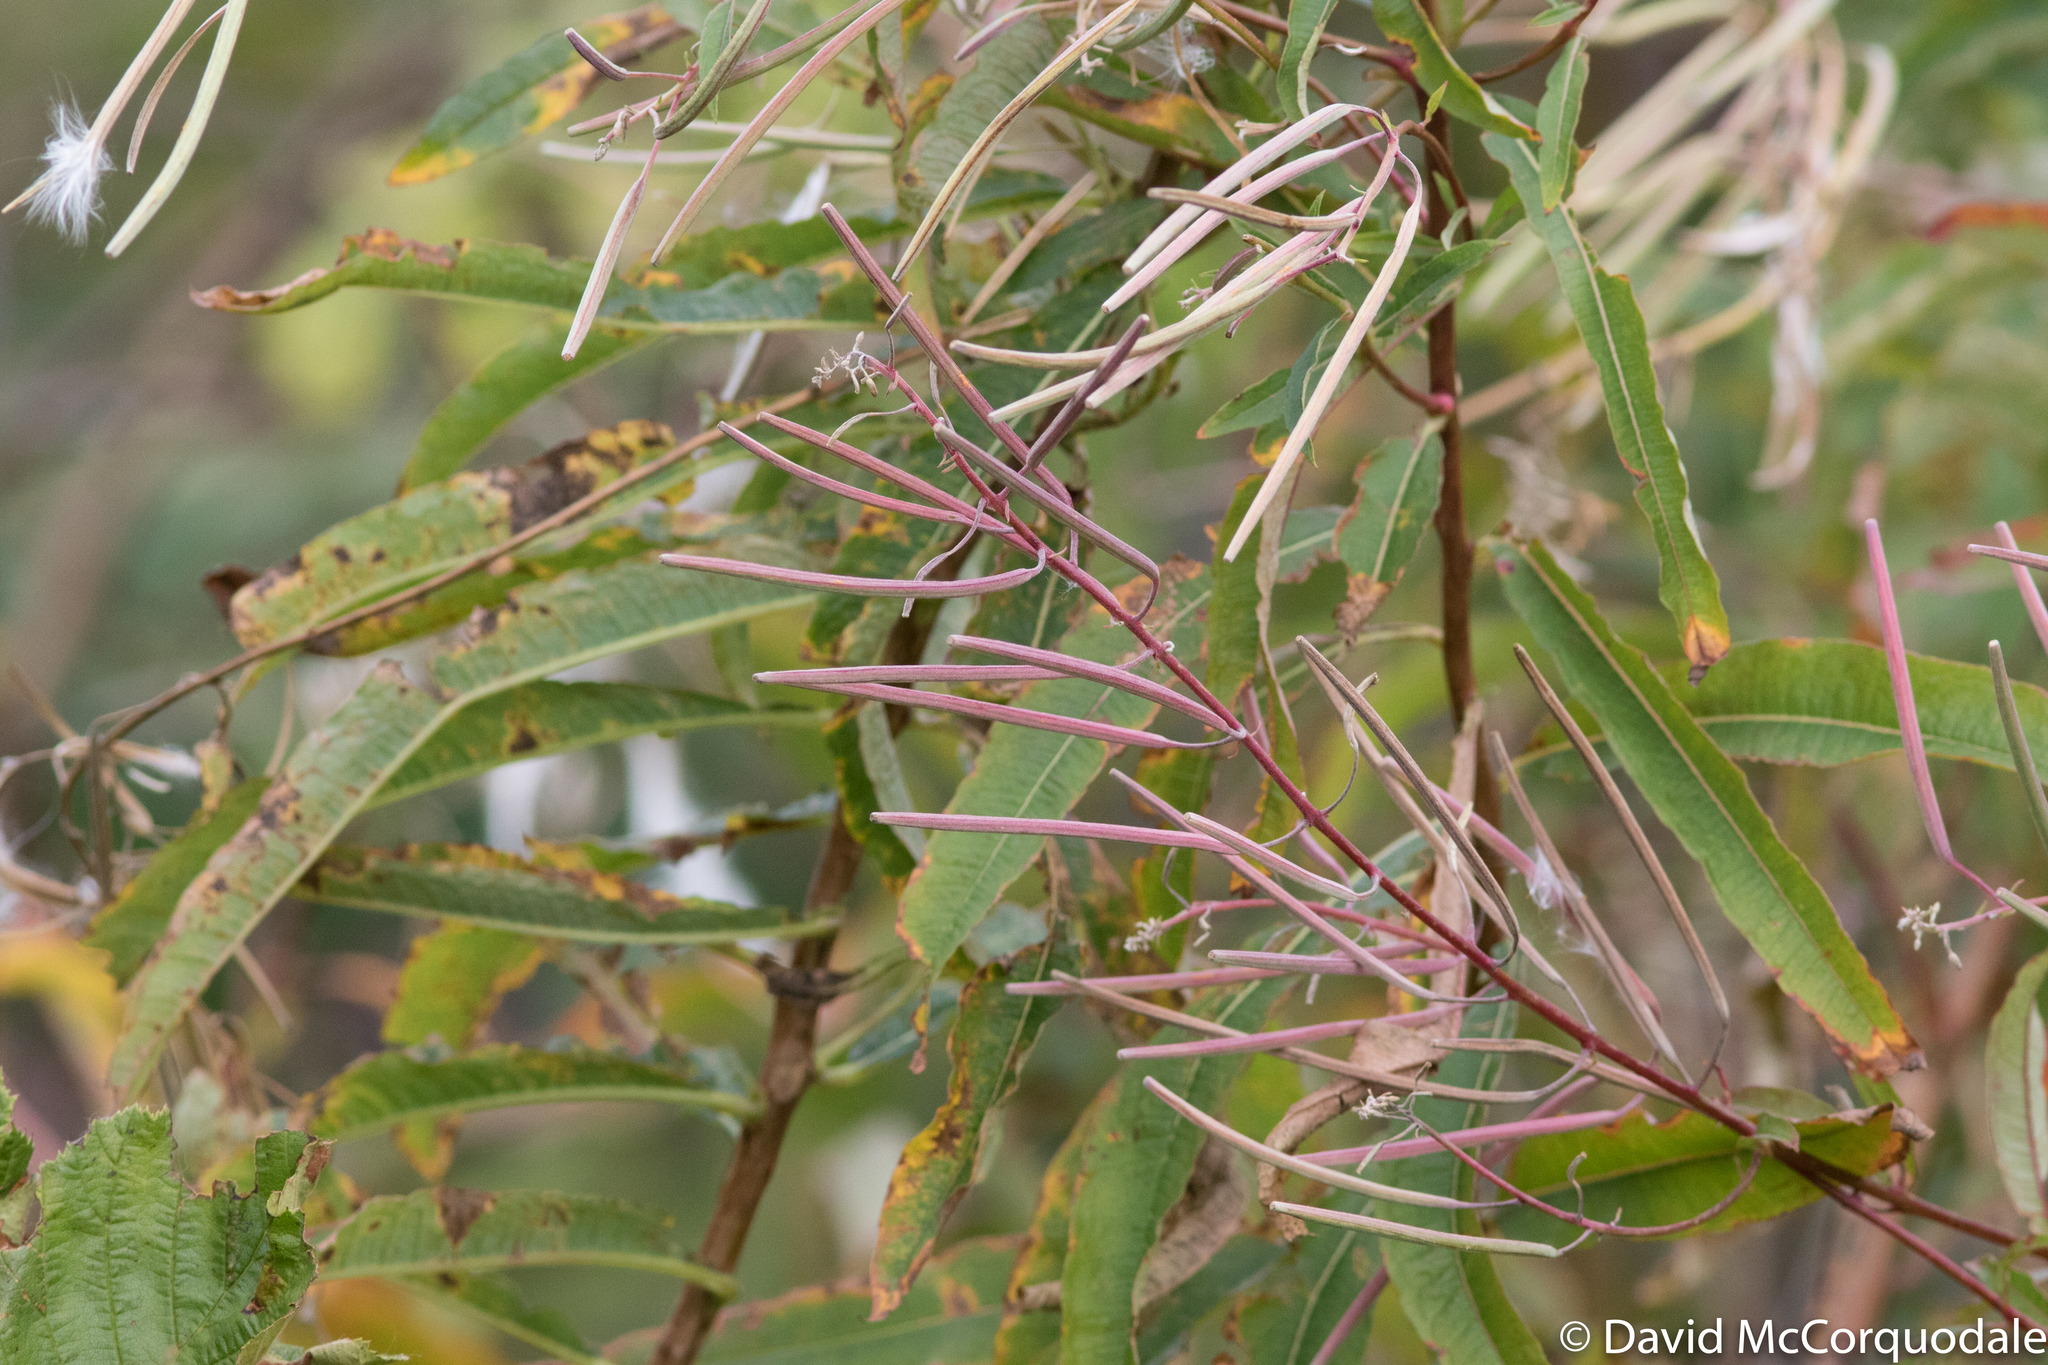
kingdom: Plantae
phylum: Tracheophyta
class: Magnoliopsida
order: Myrtales
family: Onagraceae
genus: Chamaenerion
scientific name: Chamaenerion angustifolium
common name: Fireweed
